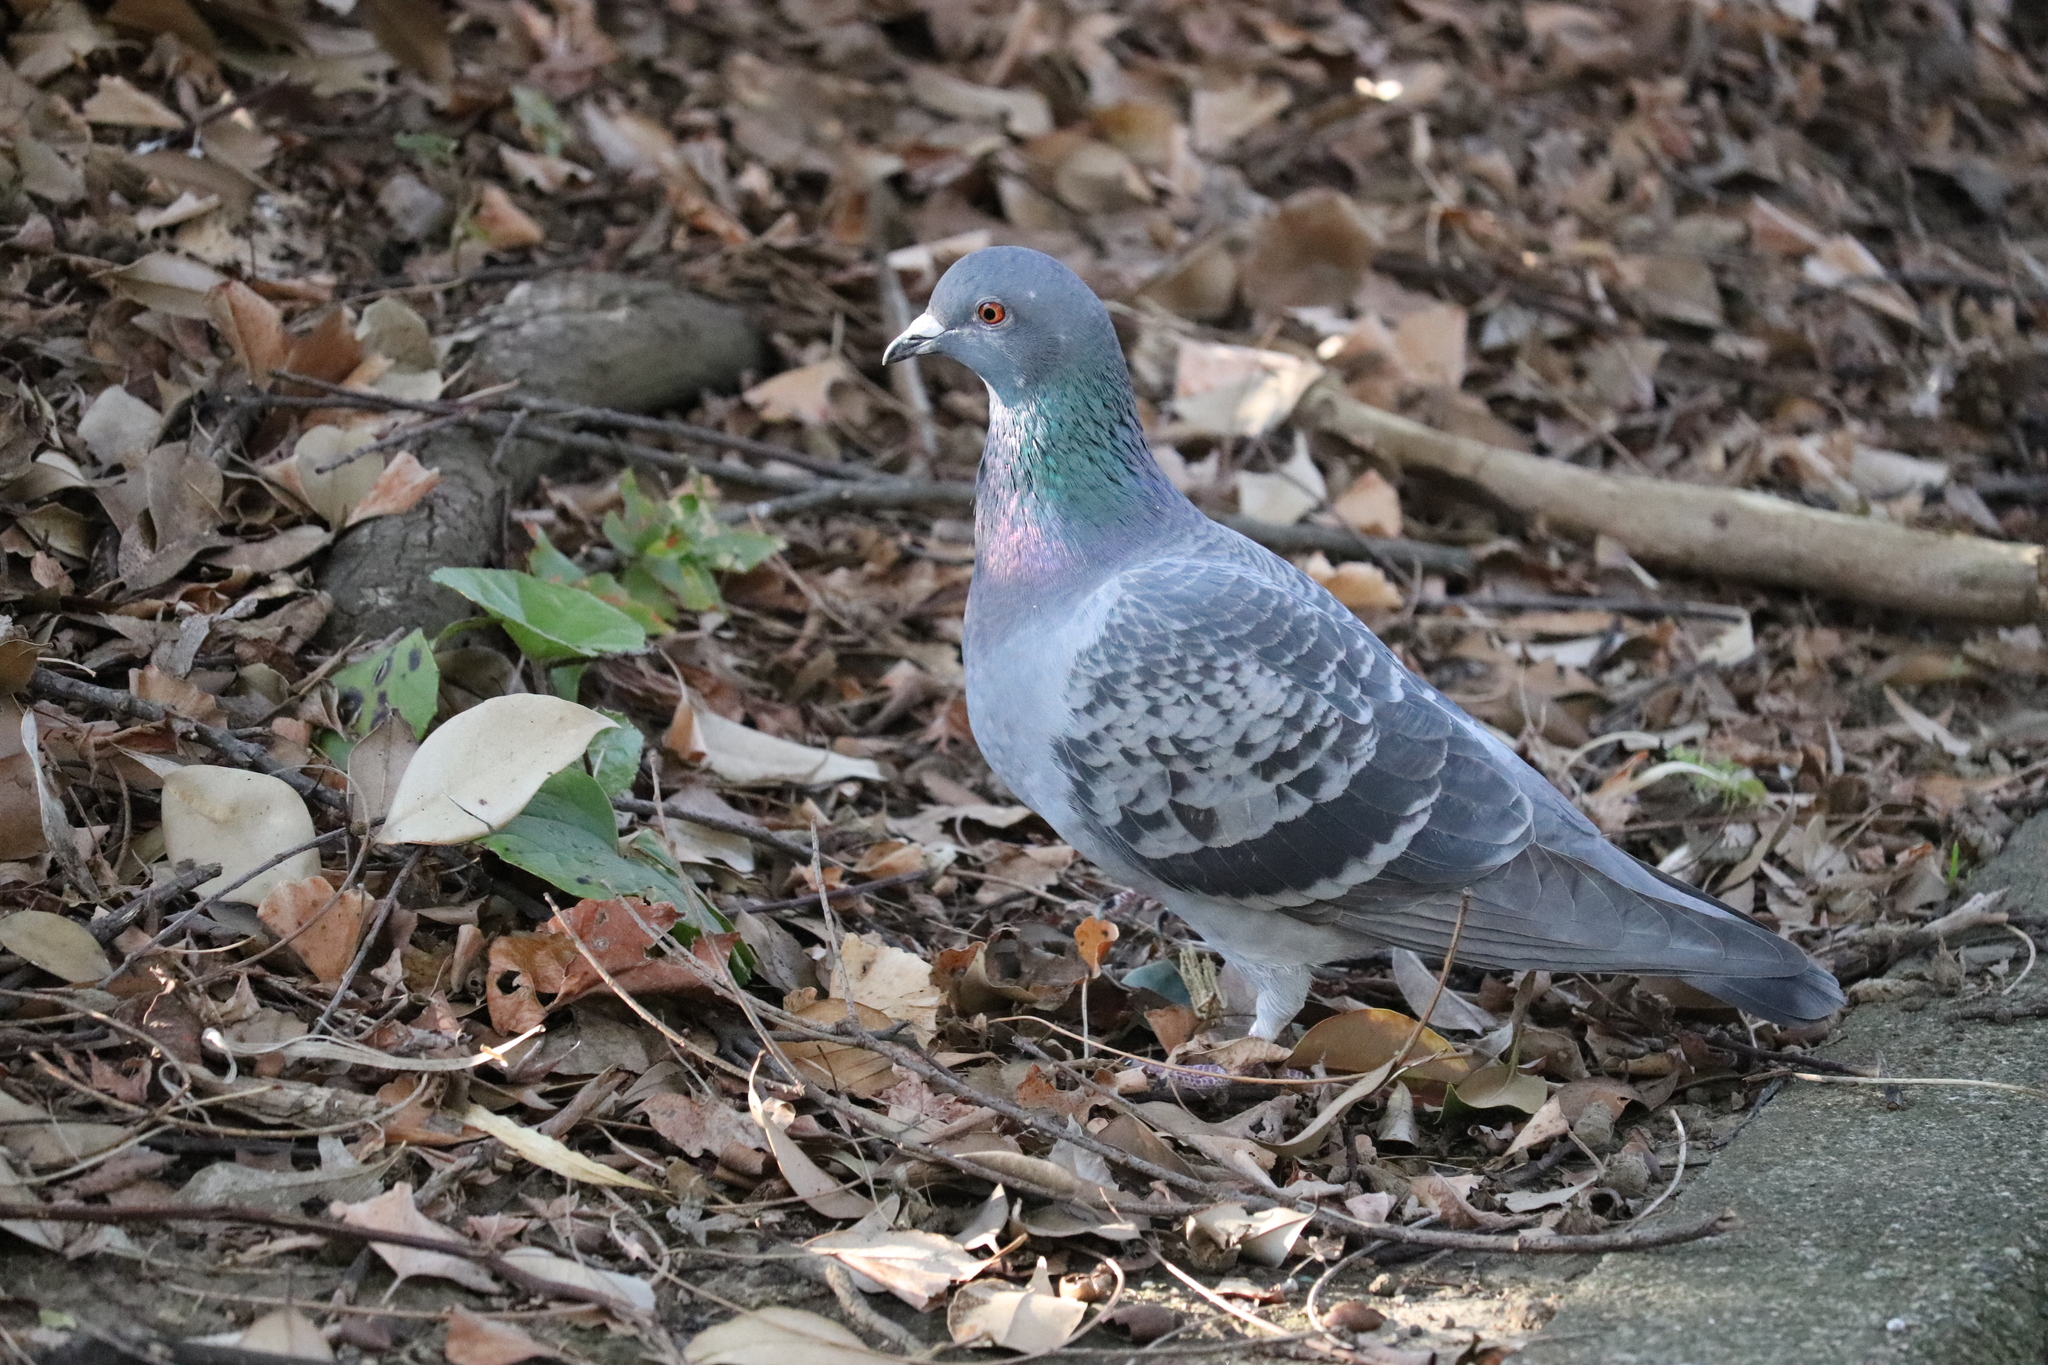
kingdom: Animalia
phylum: Chordata
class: Aves
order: Columbiformes
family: Columbidae
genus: Columba
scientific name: Columba livia
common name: Rock pigeon
